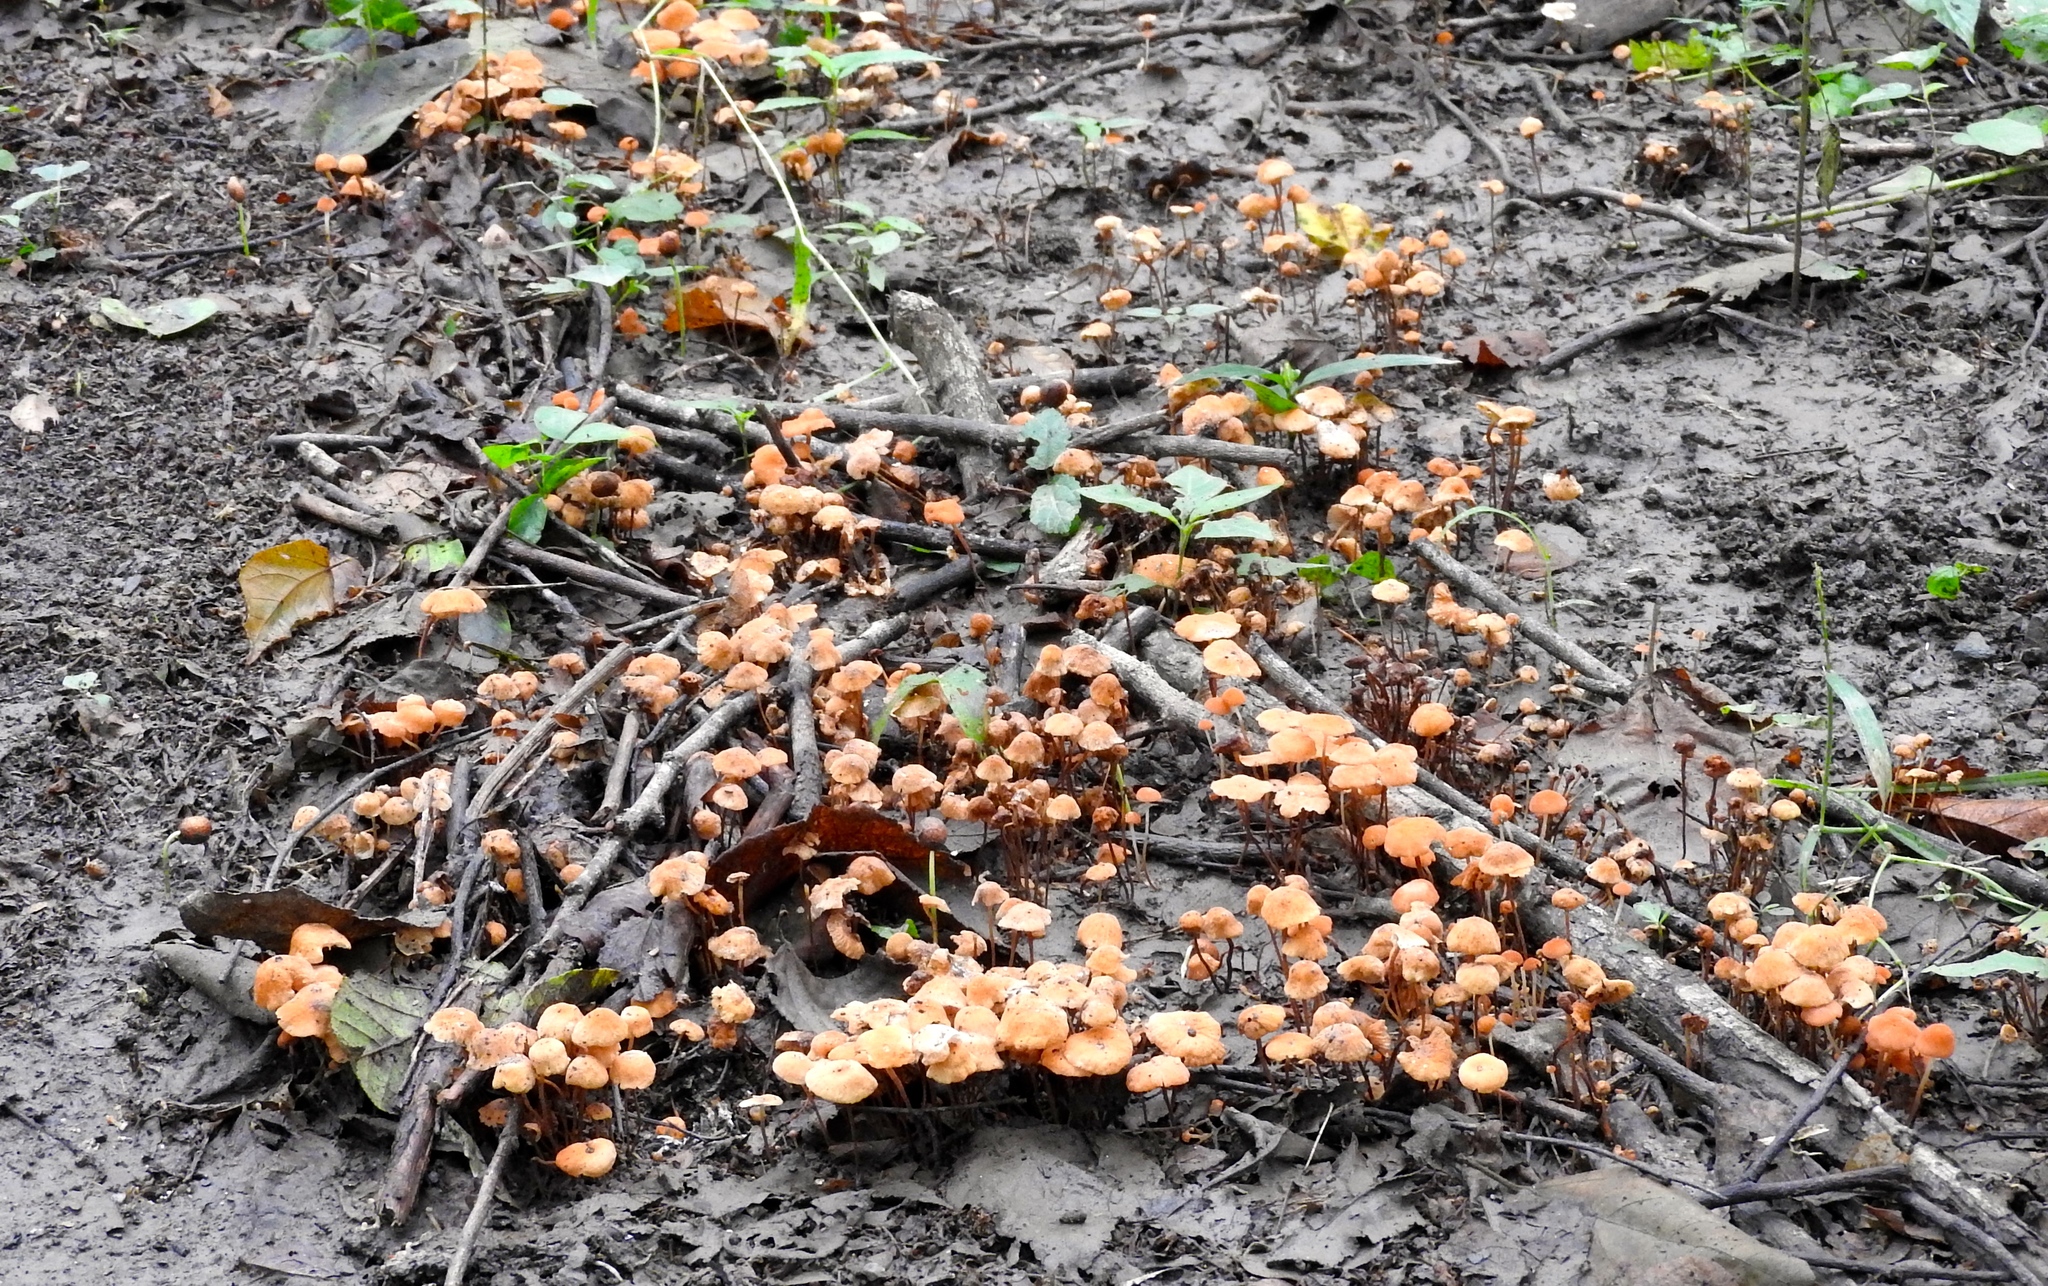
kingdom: Fungi
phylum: Basidiomycota
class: Agaricomycetes
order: Agaricales
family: Marasmiaceae
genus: Marasmius
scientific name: Marasmius
